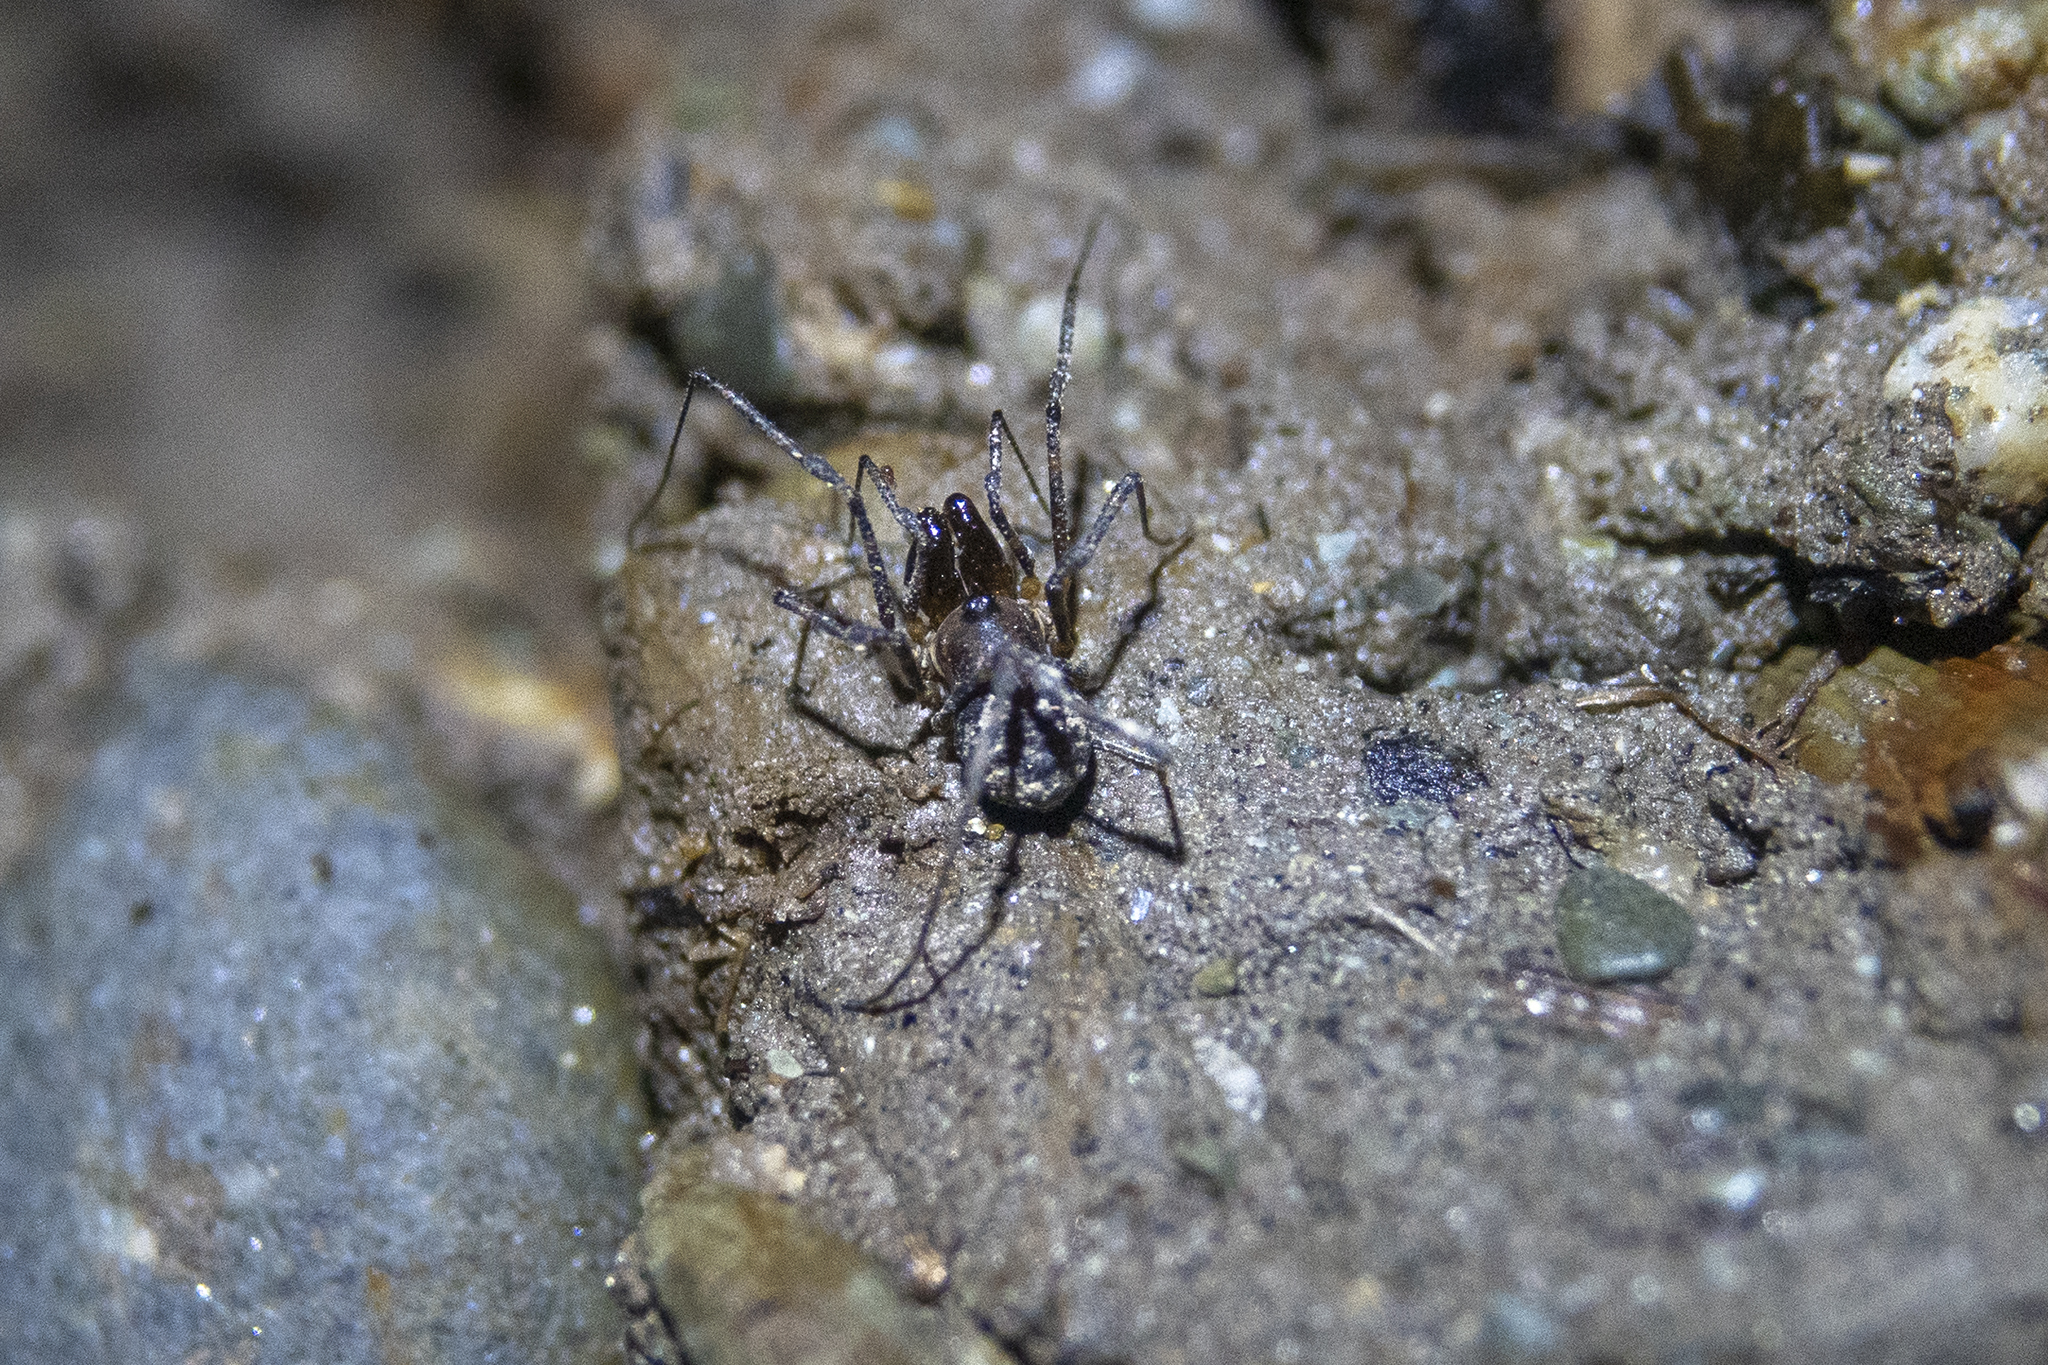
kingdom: Animalia
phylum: Arthropoda
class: Arachnida
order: Opiliones
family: Triaenonychidae
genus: Hendea
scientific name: Hendea myersi
